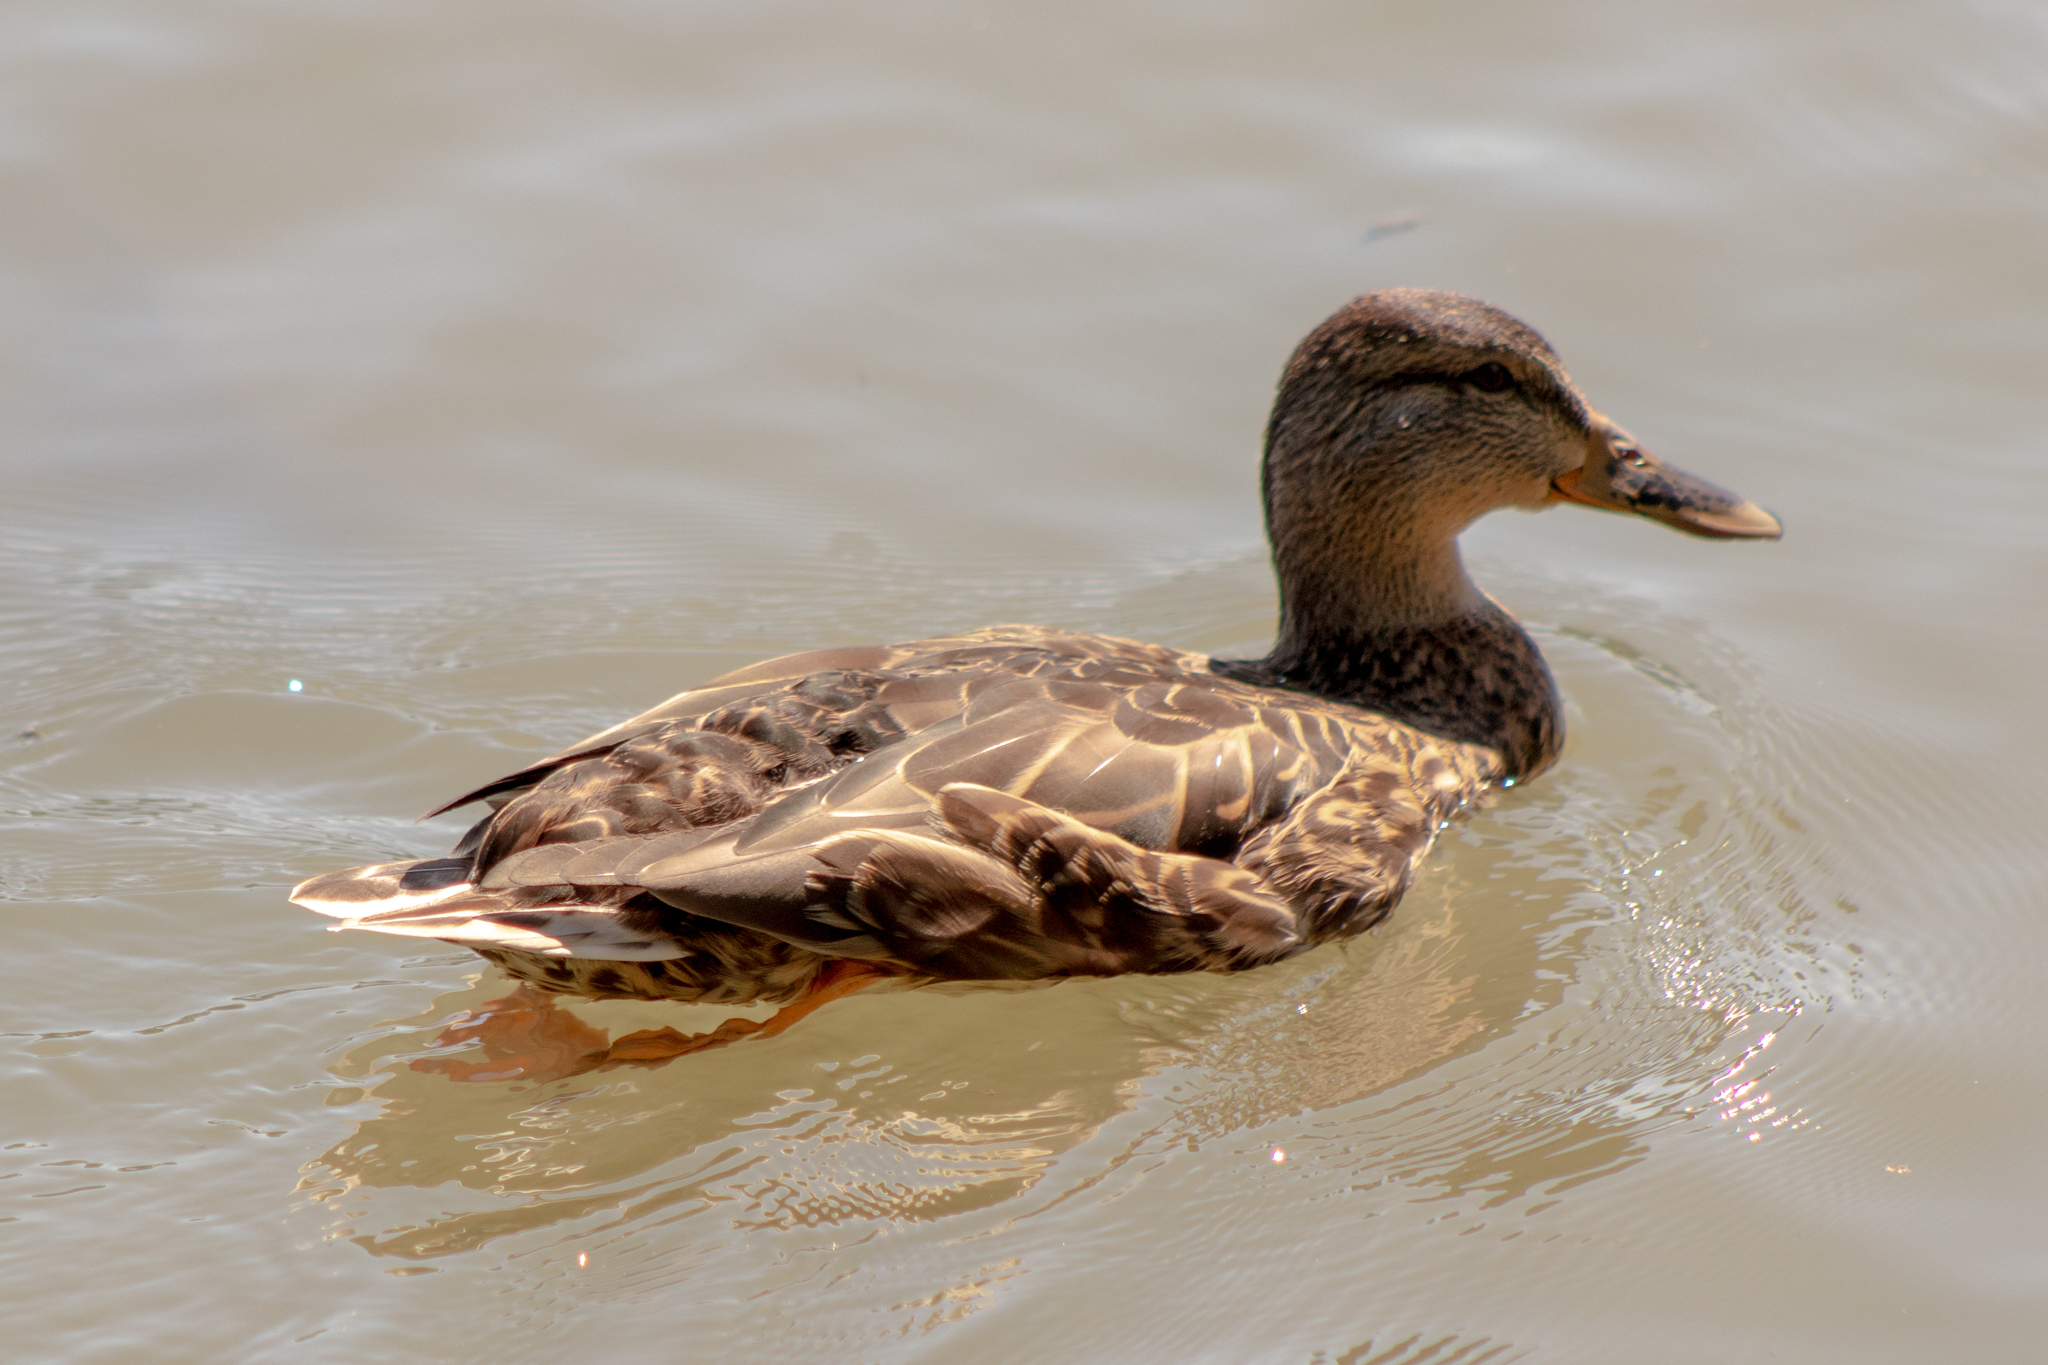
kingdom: Animalia
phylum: Chordata
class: Aves
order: Anseriformes
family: Anatidae
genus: Anas
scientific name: Anas platyrhynchos
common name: Mallard
